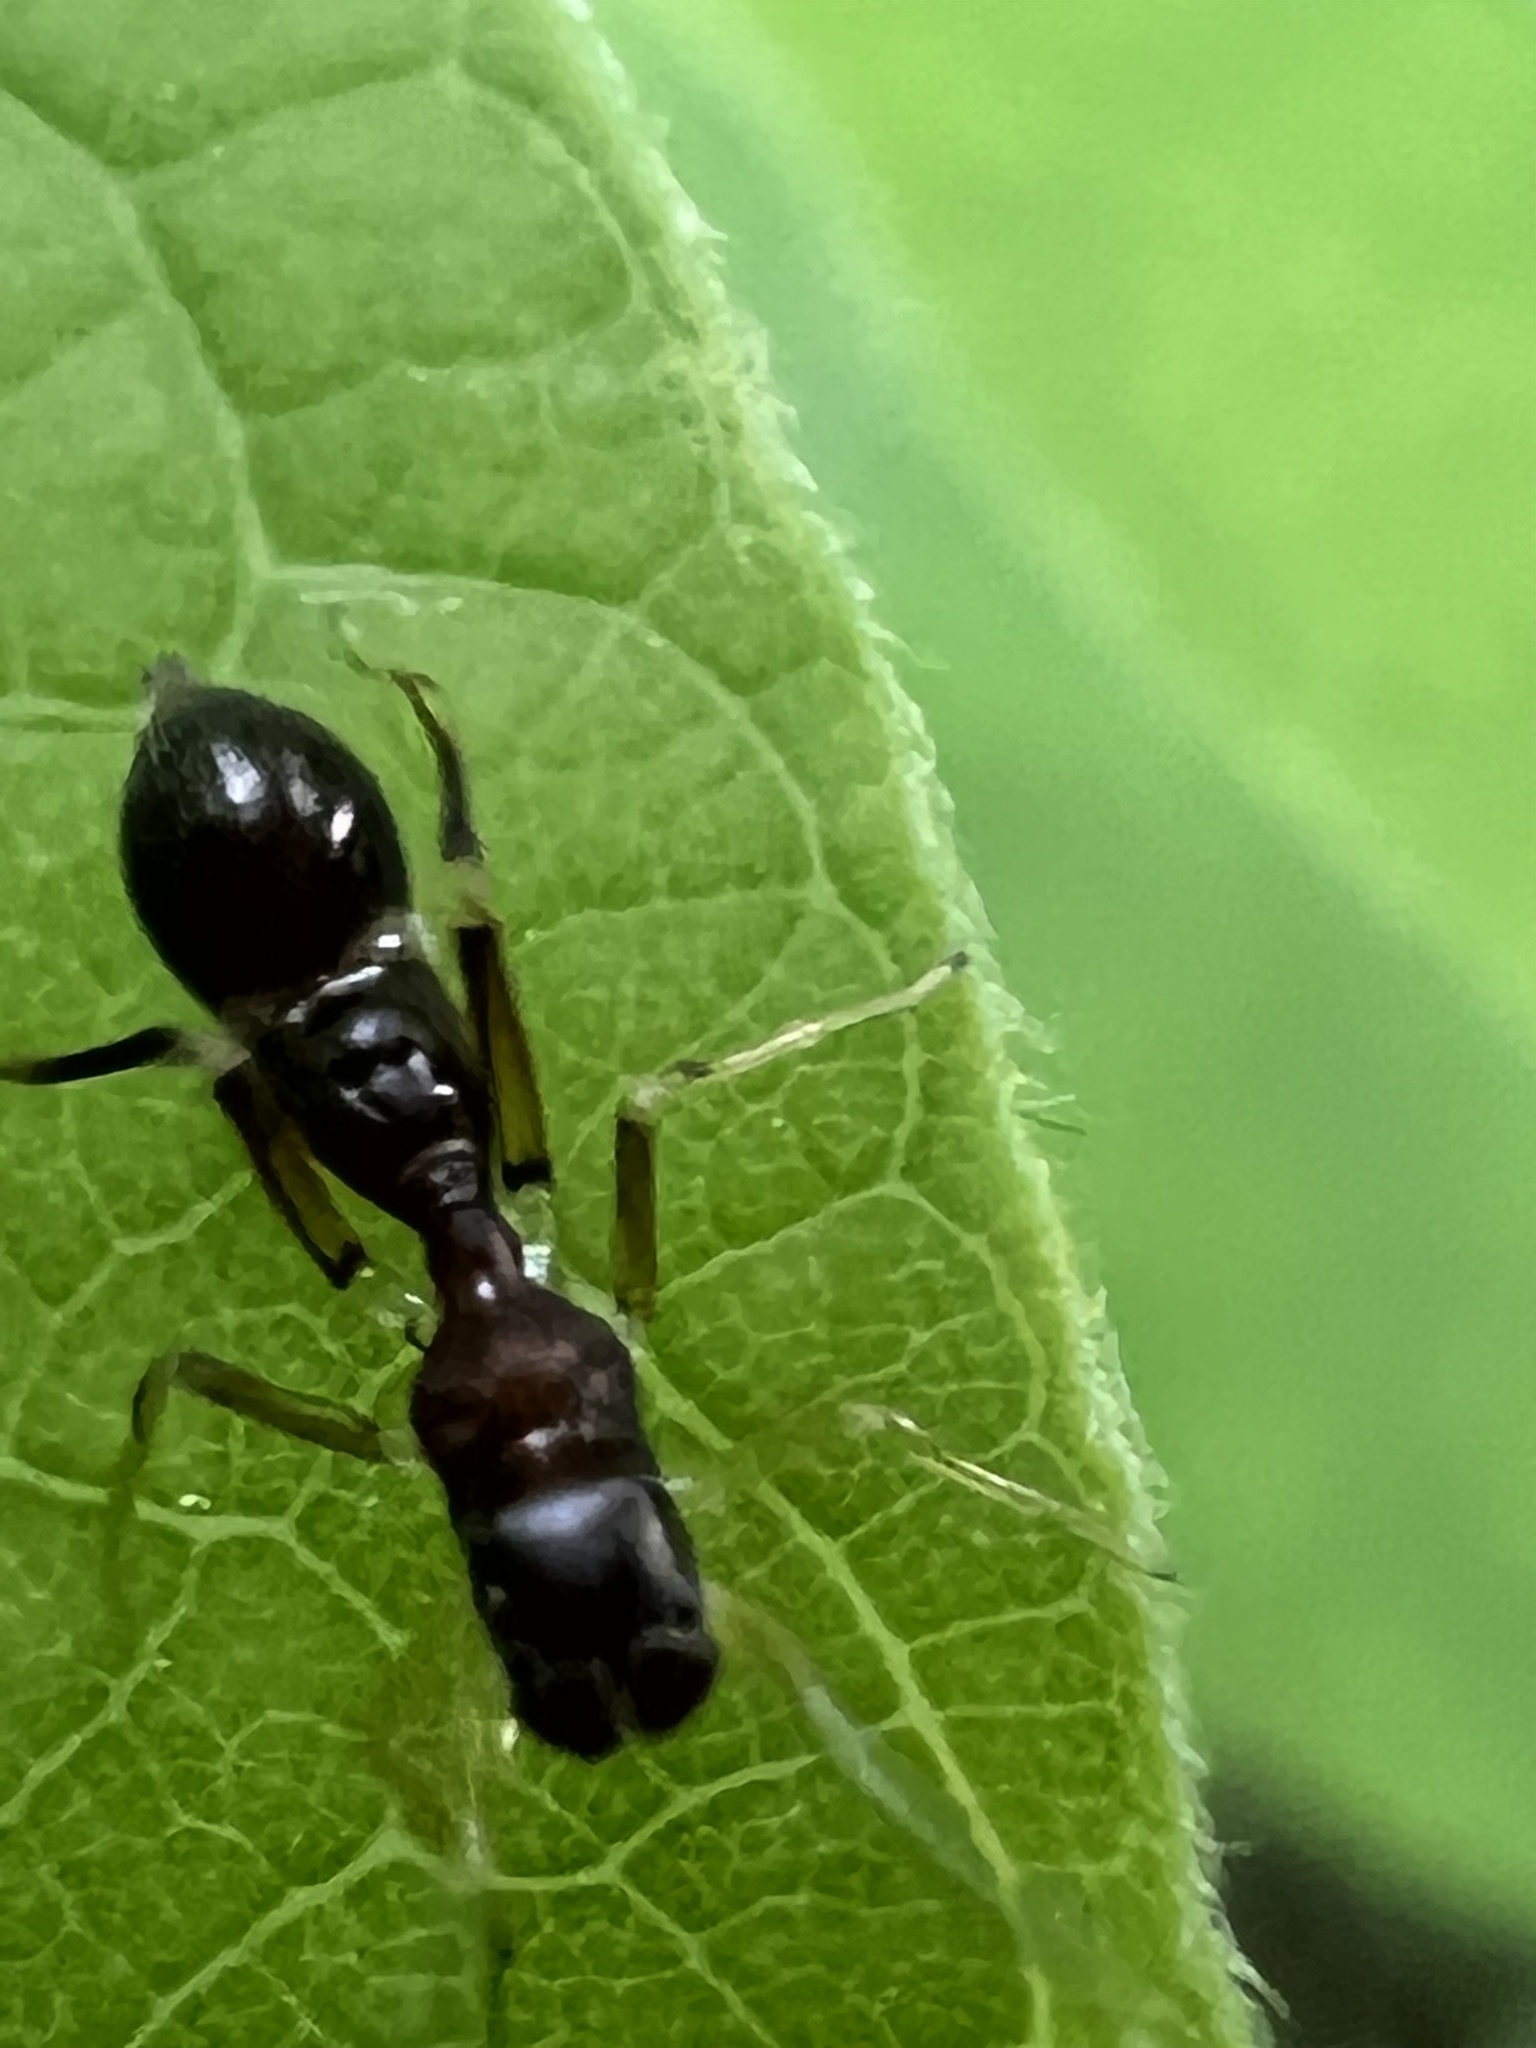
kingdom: Animalia
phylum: Arthropoda
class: Arachnida
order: Araneae
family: Salticidae
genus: Synemosyna
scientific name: Synemosyna formica
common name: Slender ant-mimic jumping spider
